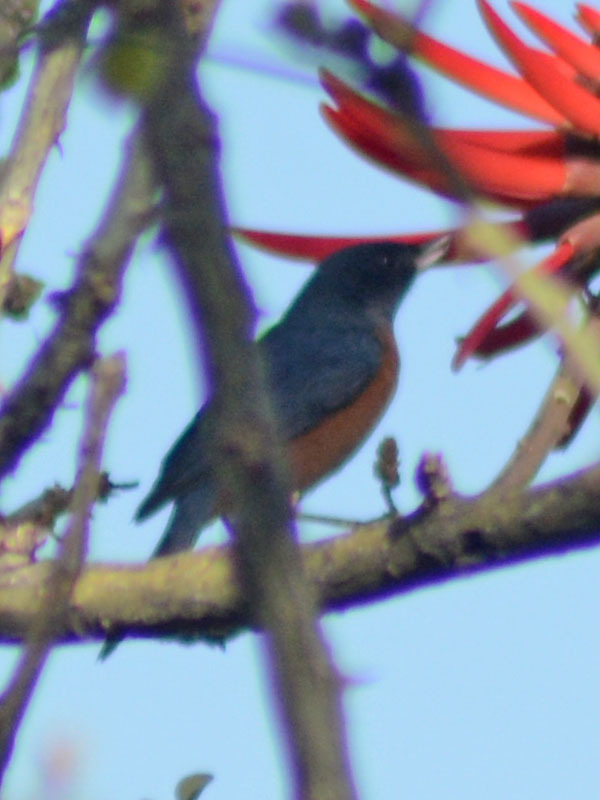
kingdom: Animalia
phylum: Chordata
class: Aves
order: Passeriformes
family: Thraupidae
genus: Diglossa
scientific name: Diglossa baritula
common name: Cinnamon-bellied flowerpiercer
